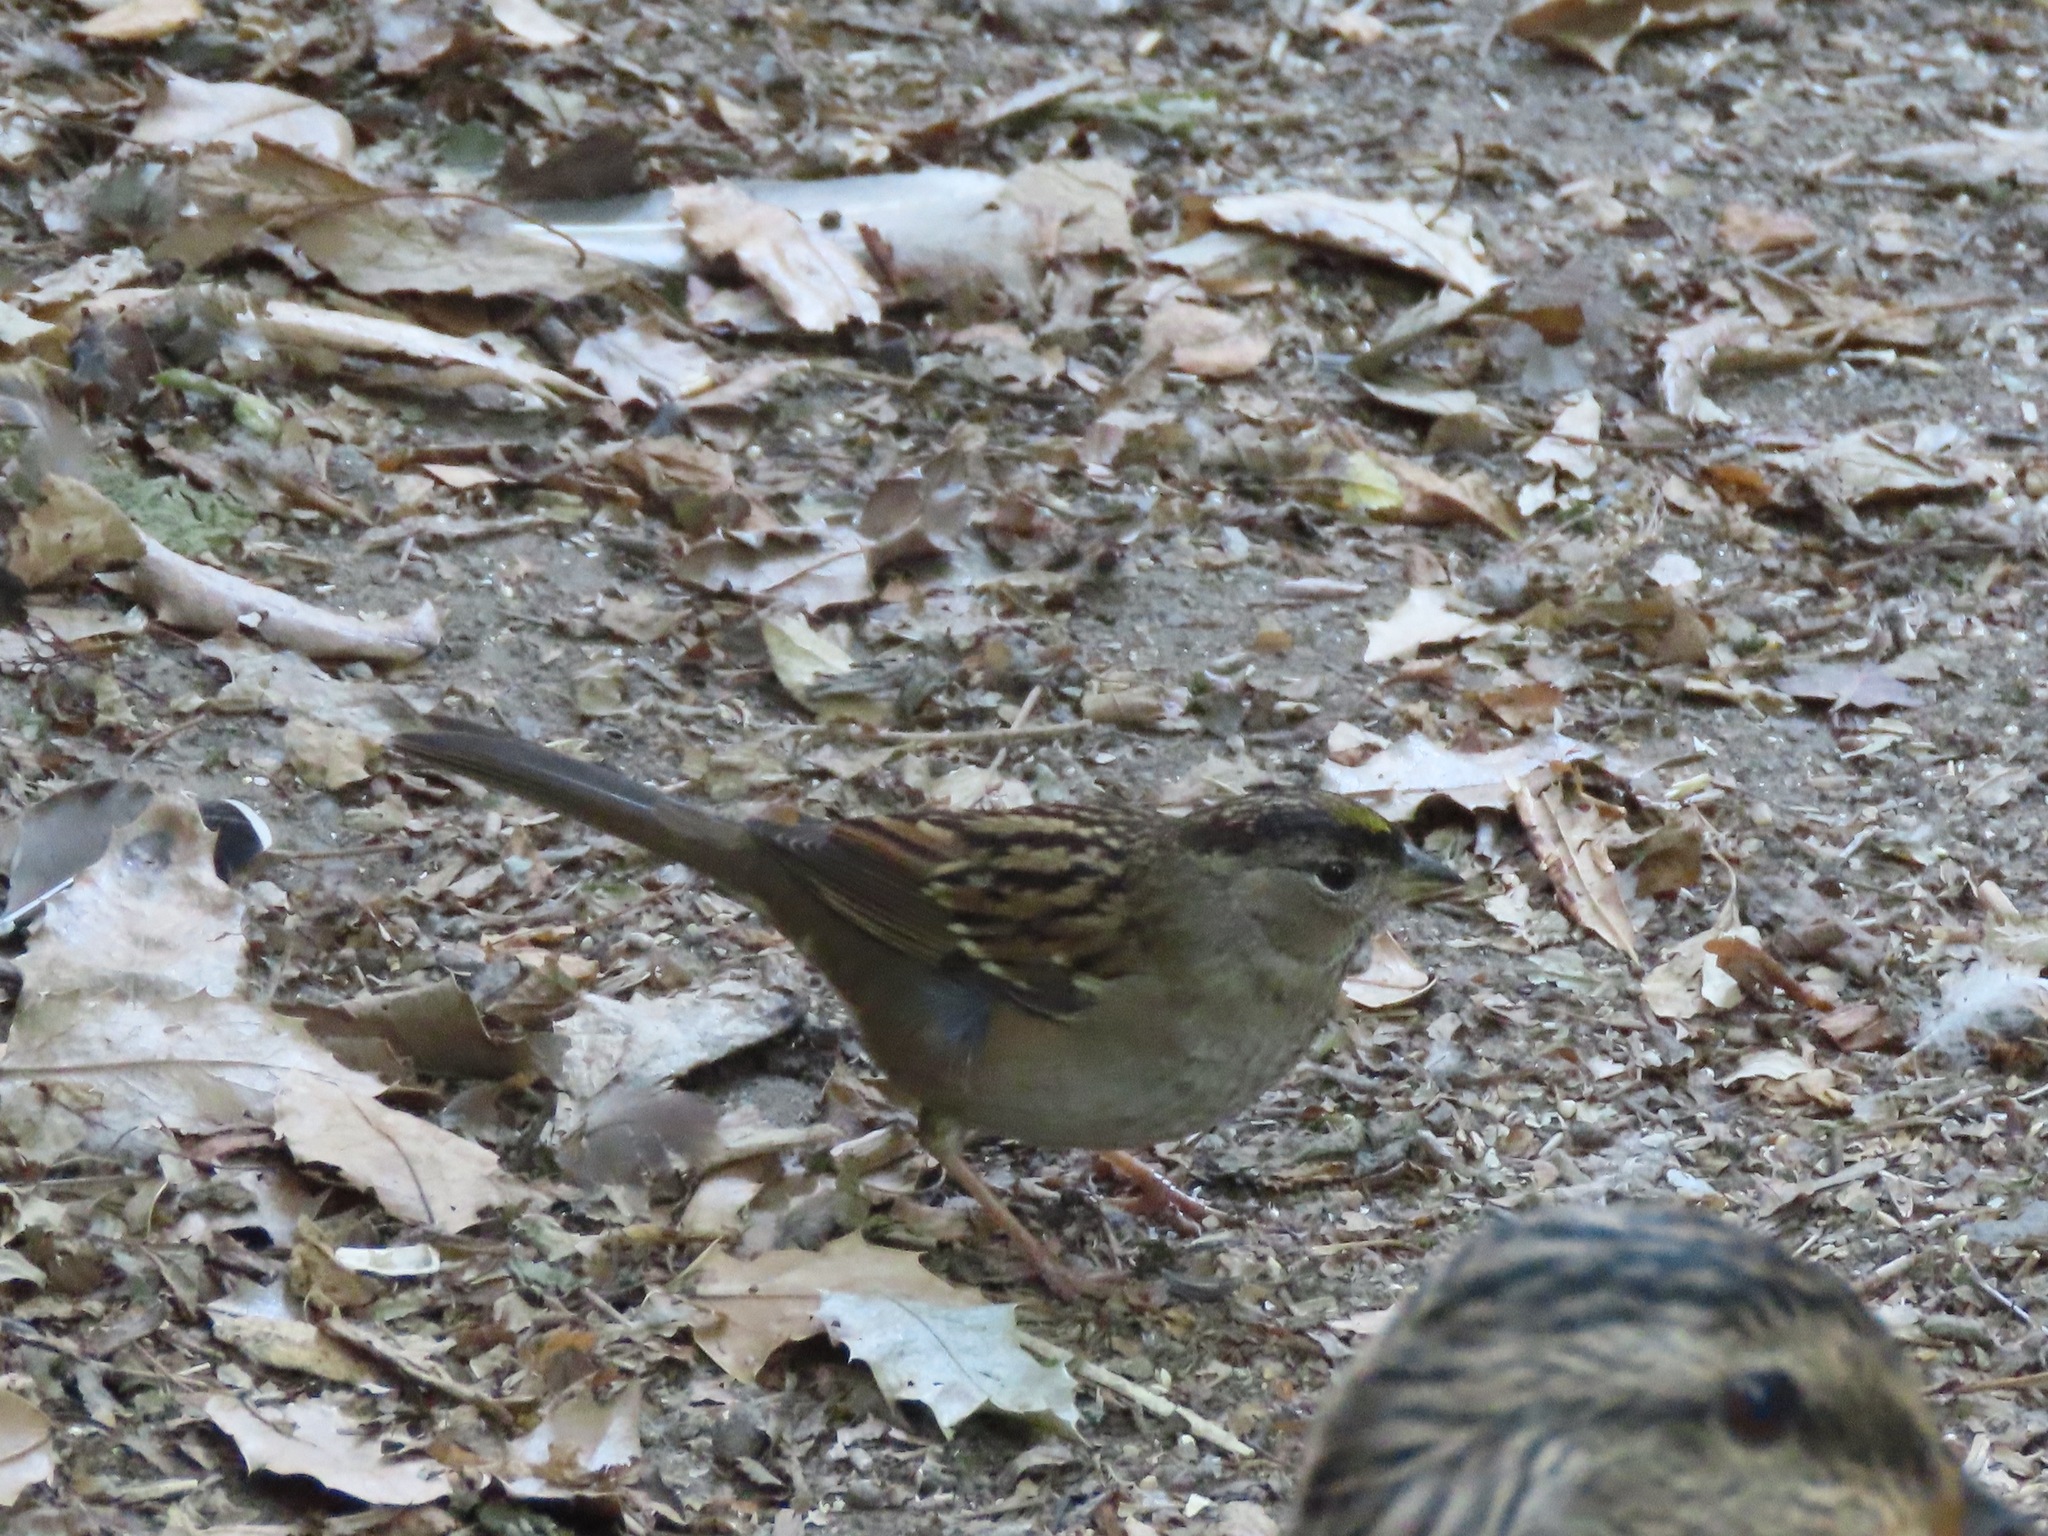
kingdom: Animalia
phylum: Chordata
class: Aves
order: Passeriformes
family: Passerellidae
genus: Zonotrichia
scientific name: Zonotrichia atricapilla
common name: Golden-crowned sparrow
